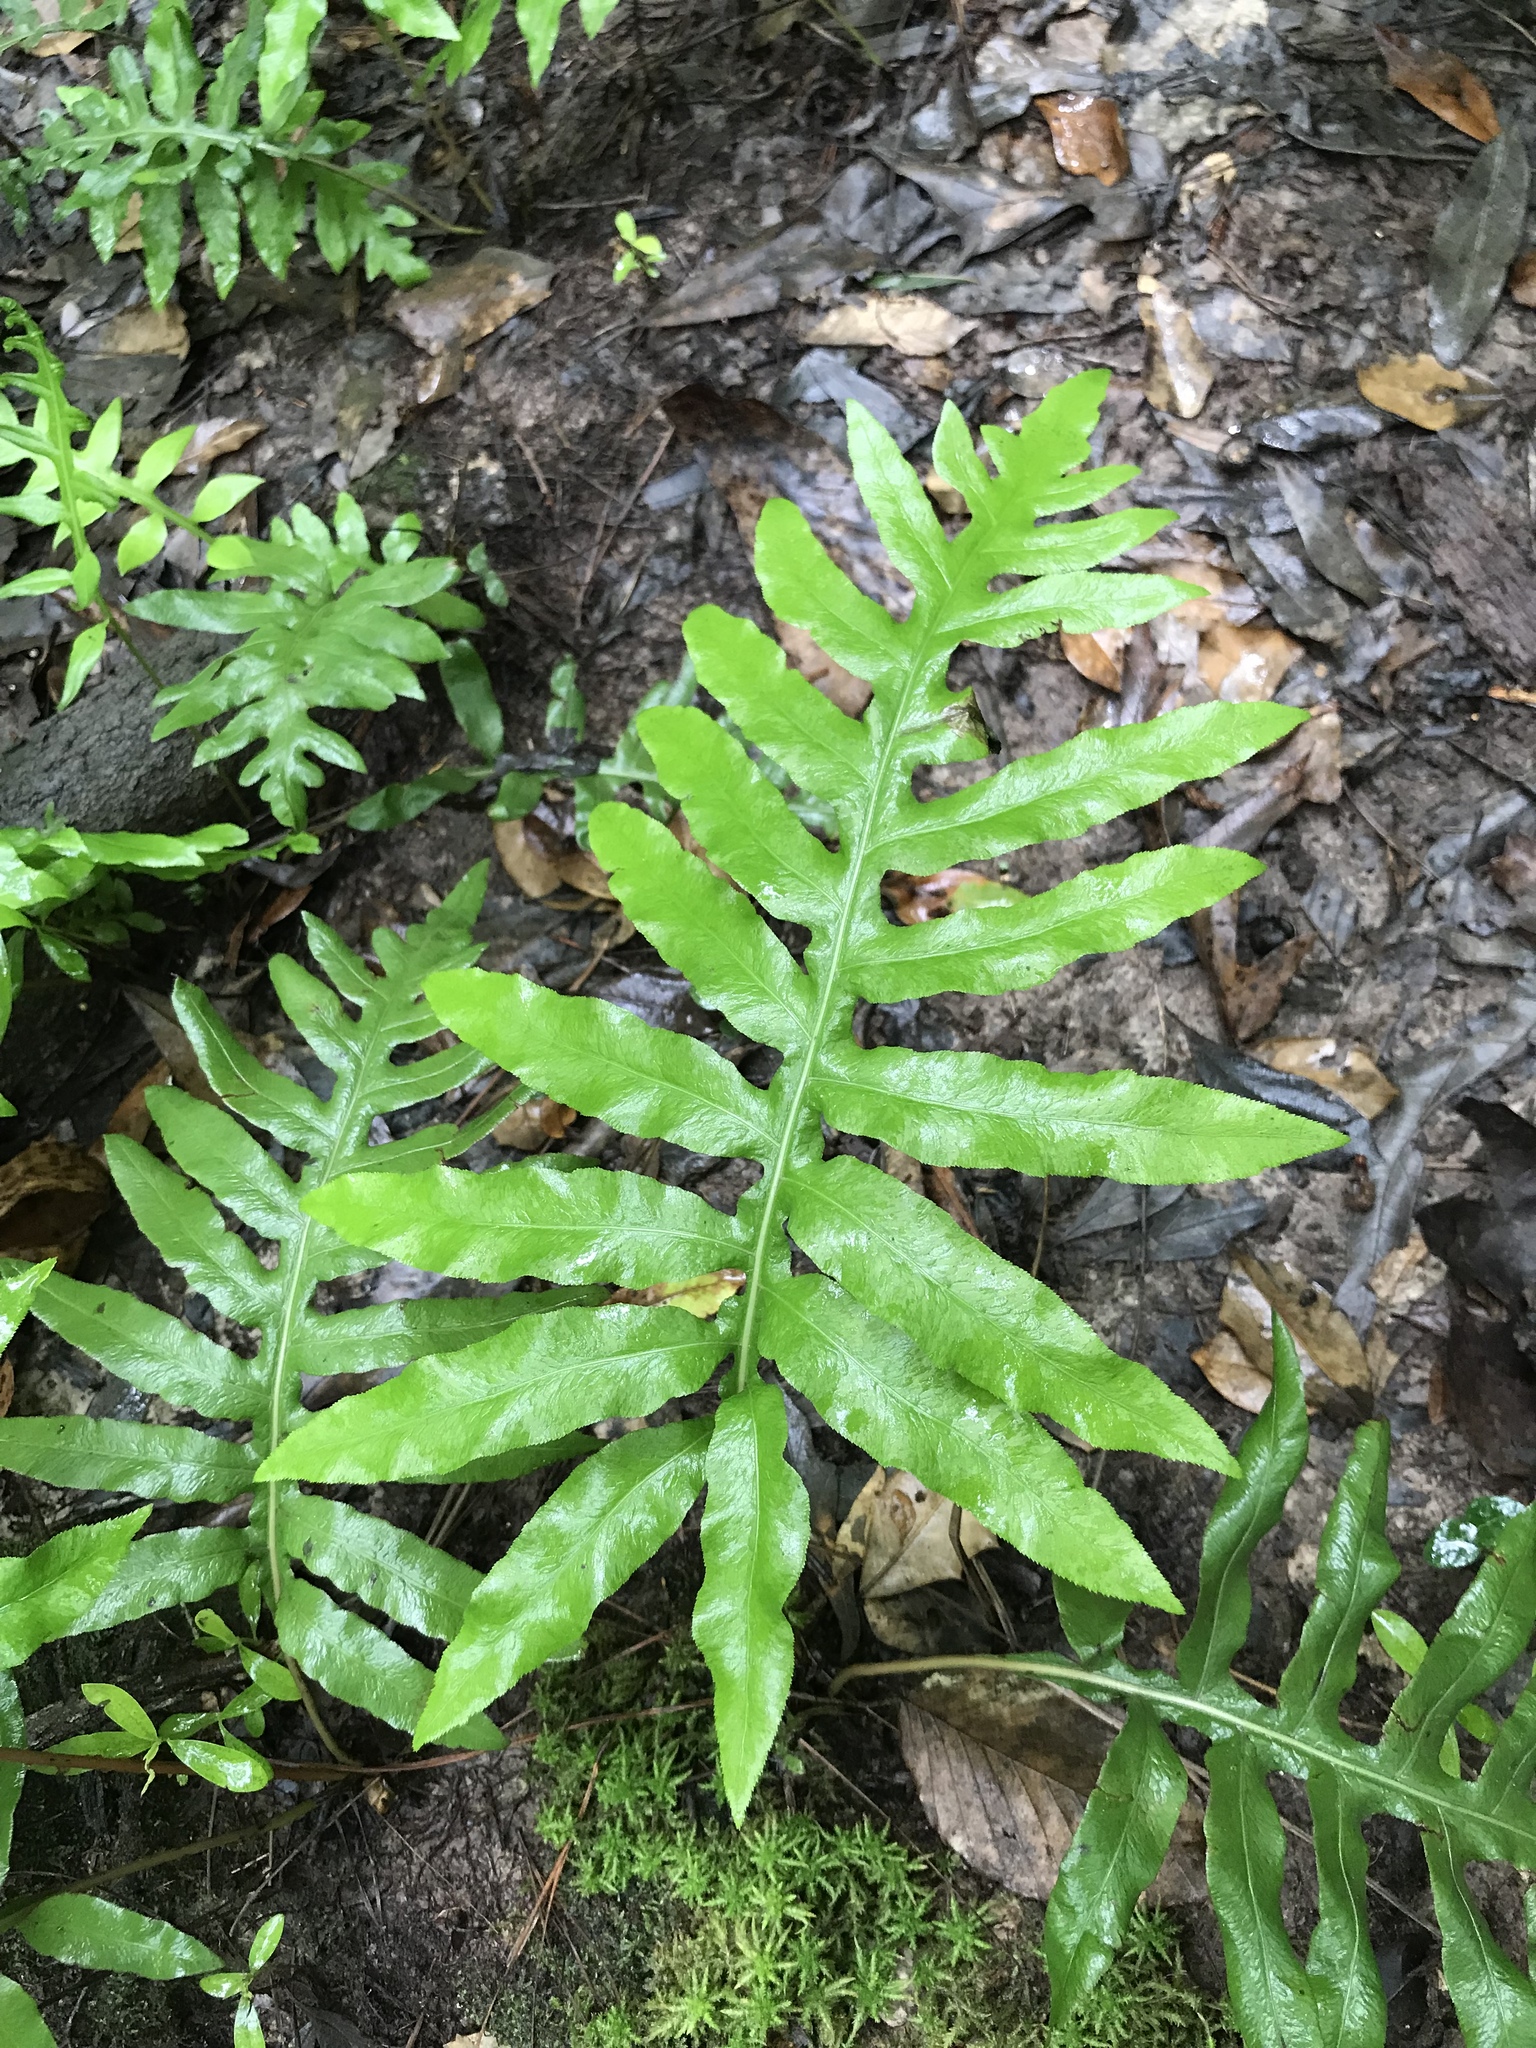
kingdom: Plantae
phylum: Tracheophyta
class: Polypodiopsida
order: Polypodiales
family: Blechnaceae
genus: Lorinseria
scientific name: Lorinseria areolata
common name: Dwarf chain fern
